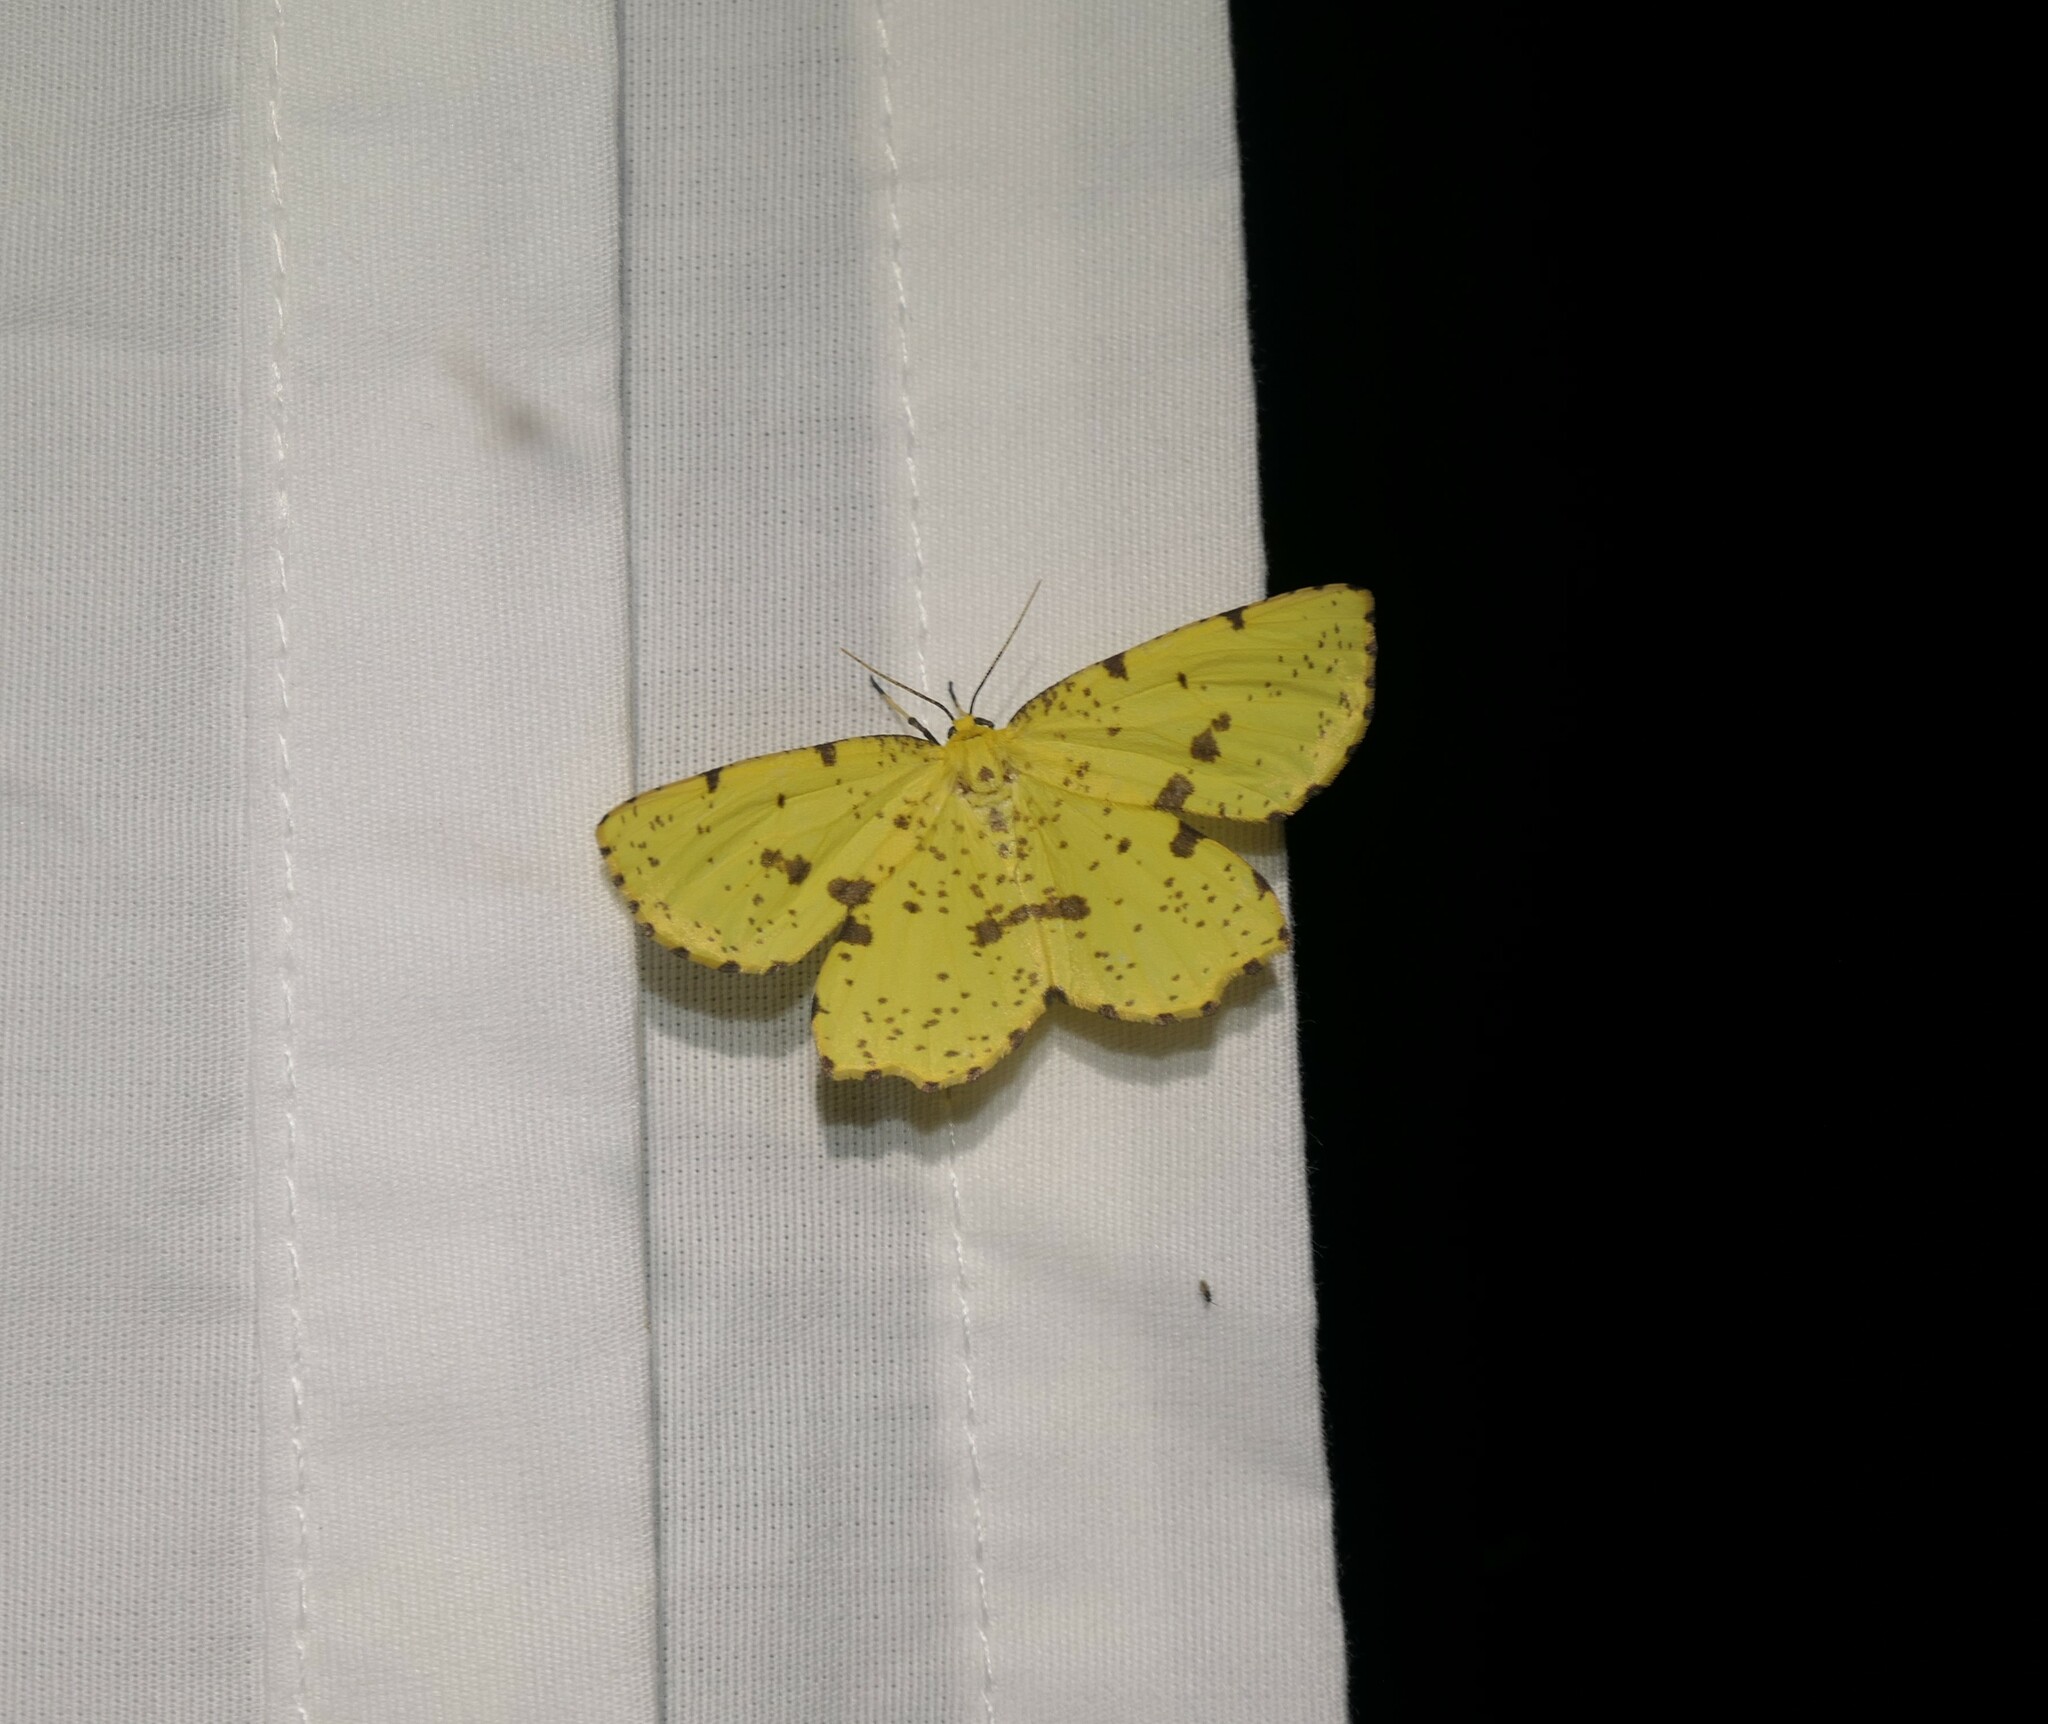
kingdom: Animalia
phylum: Arthropoda
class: Insecta
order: Lepidoptera
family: Geometridae
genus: Xanthotype
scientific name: Xanthotype
